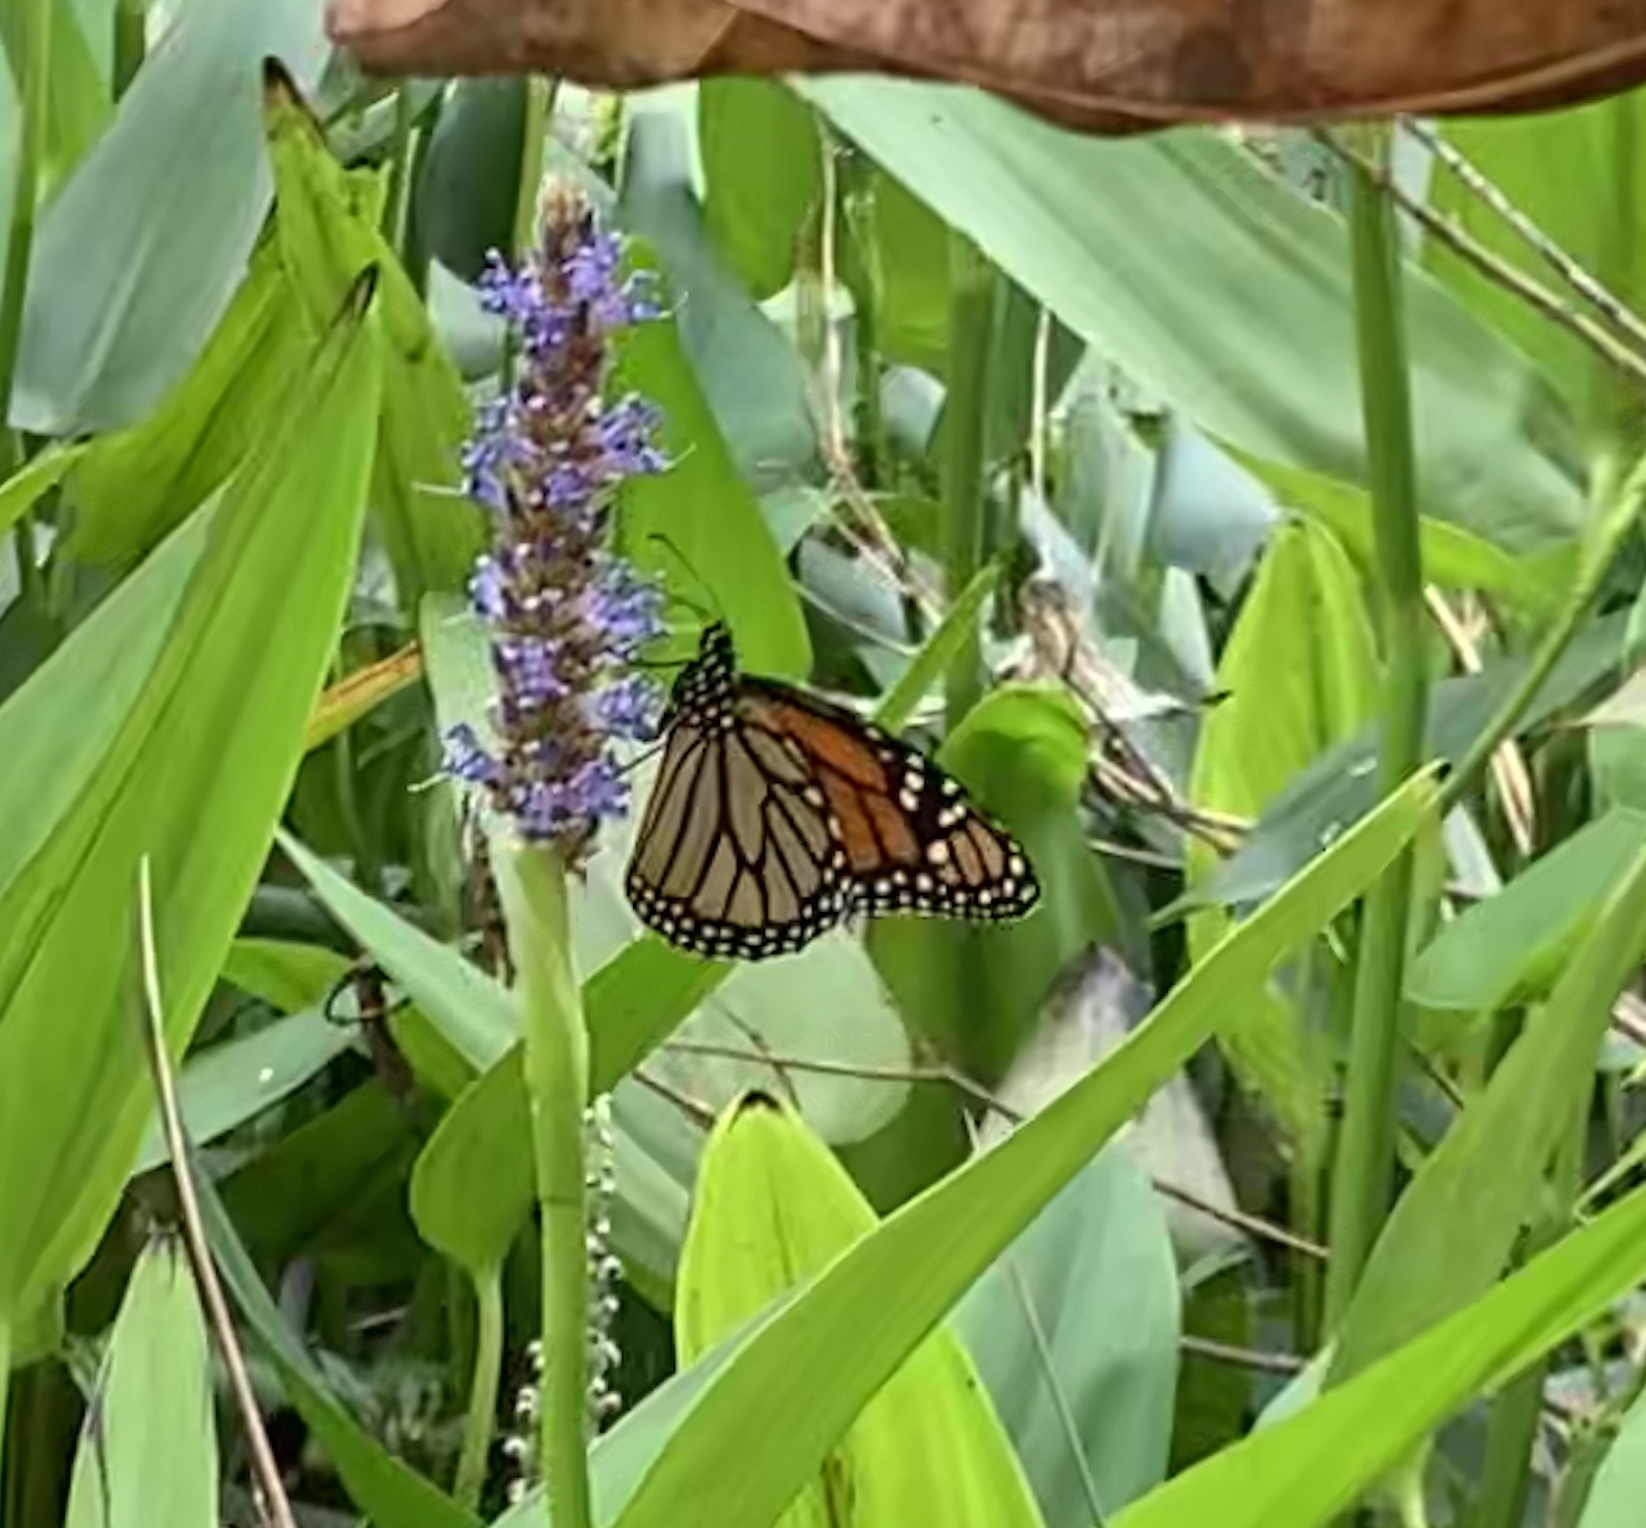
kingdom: Animalia
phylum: Arthropoda
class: Insecta
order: Lepidoptera
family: Nymphalidae
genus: Danaus
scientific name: Danaus plexippus
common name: Monarch
